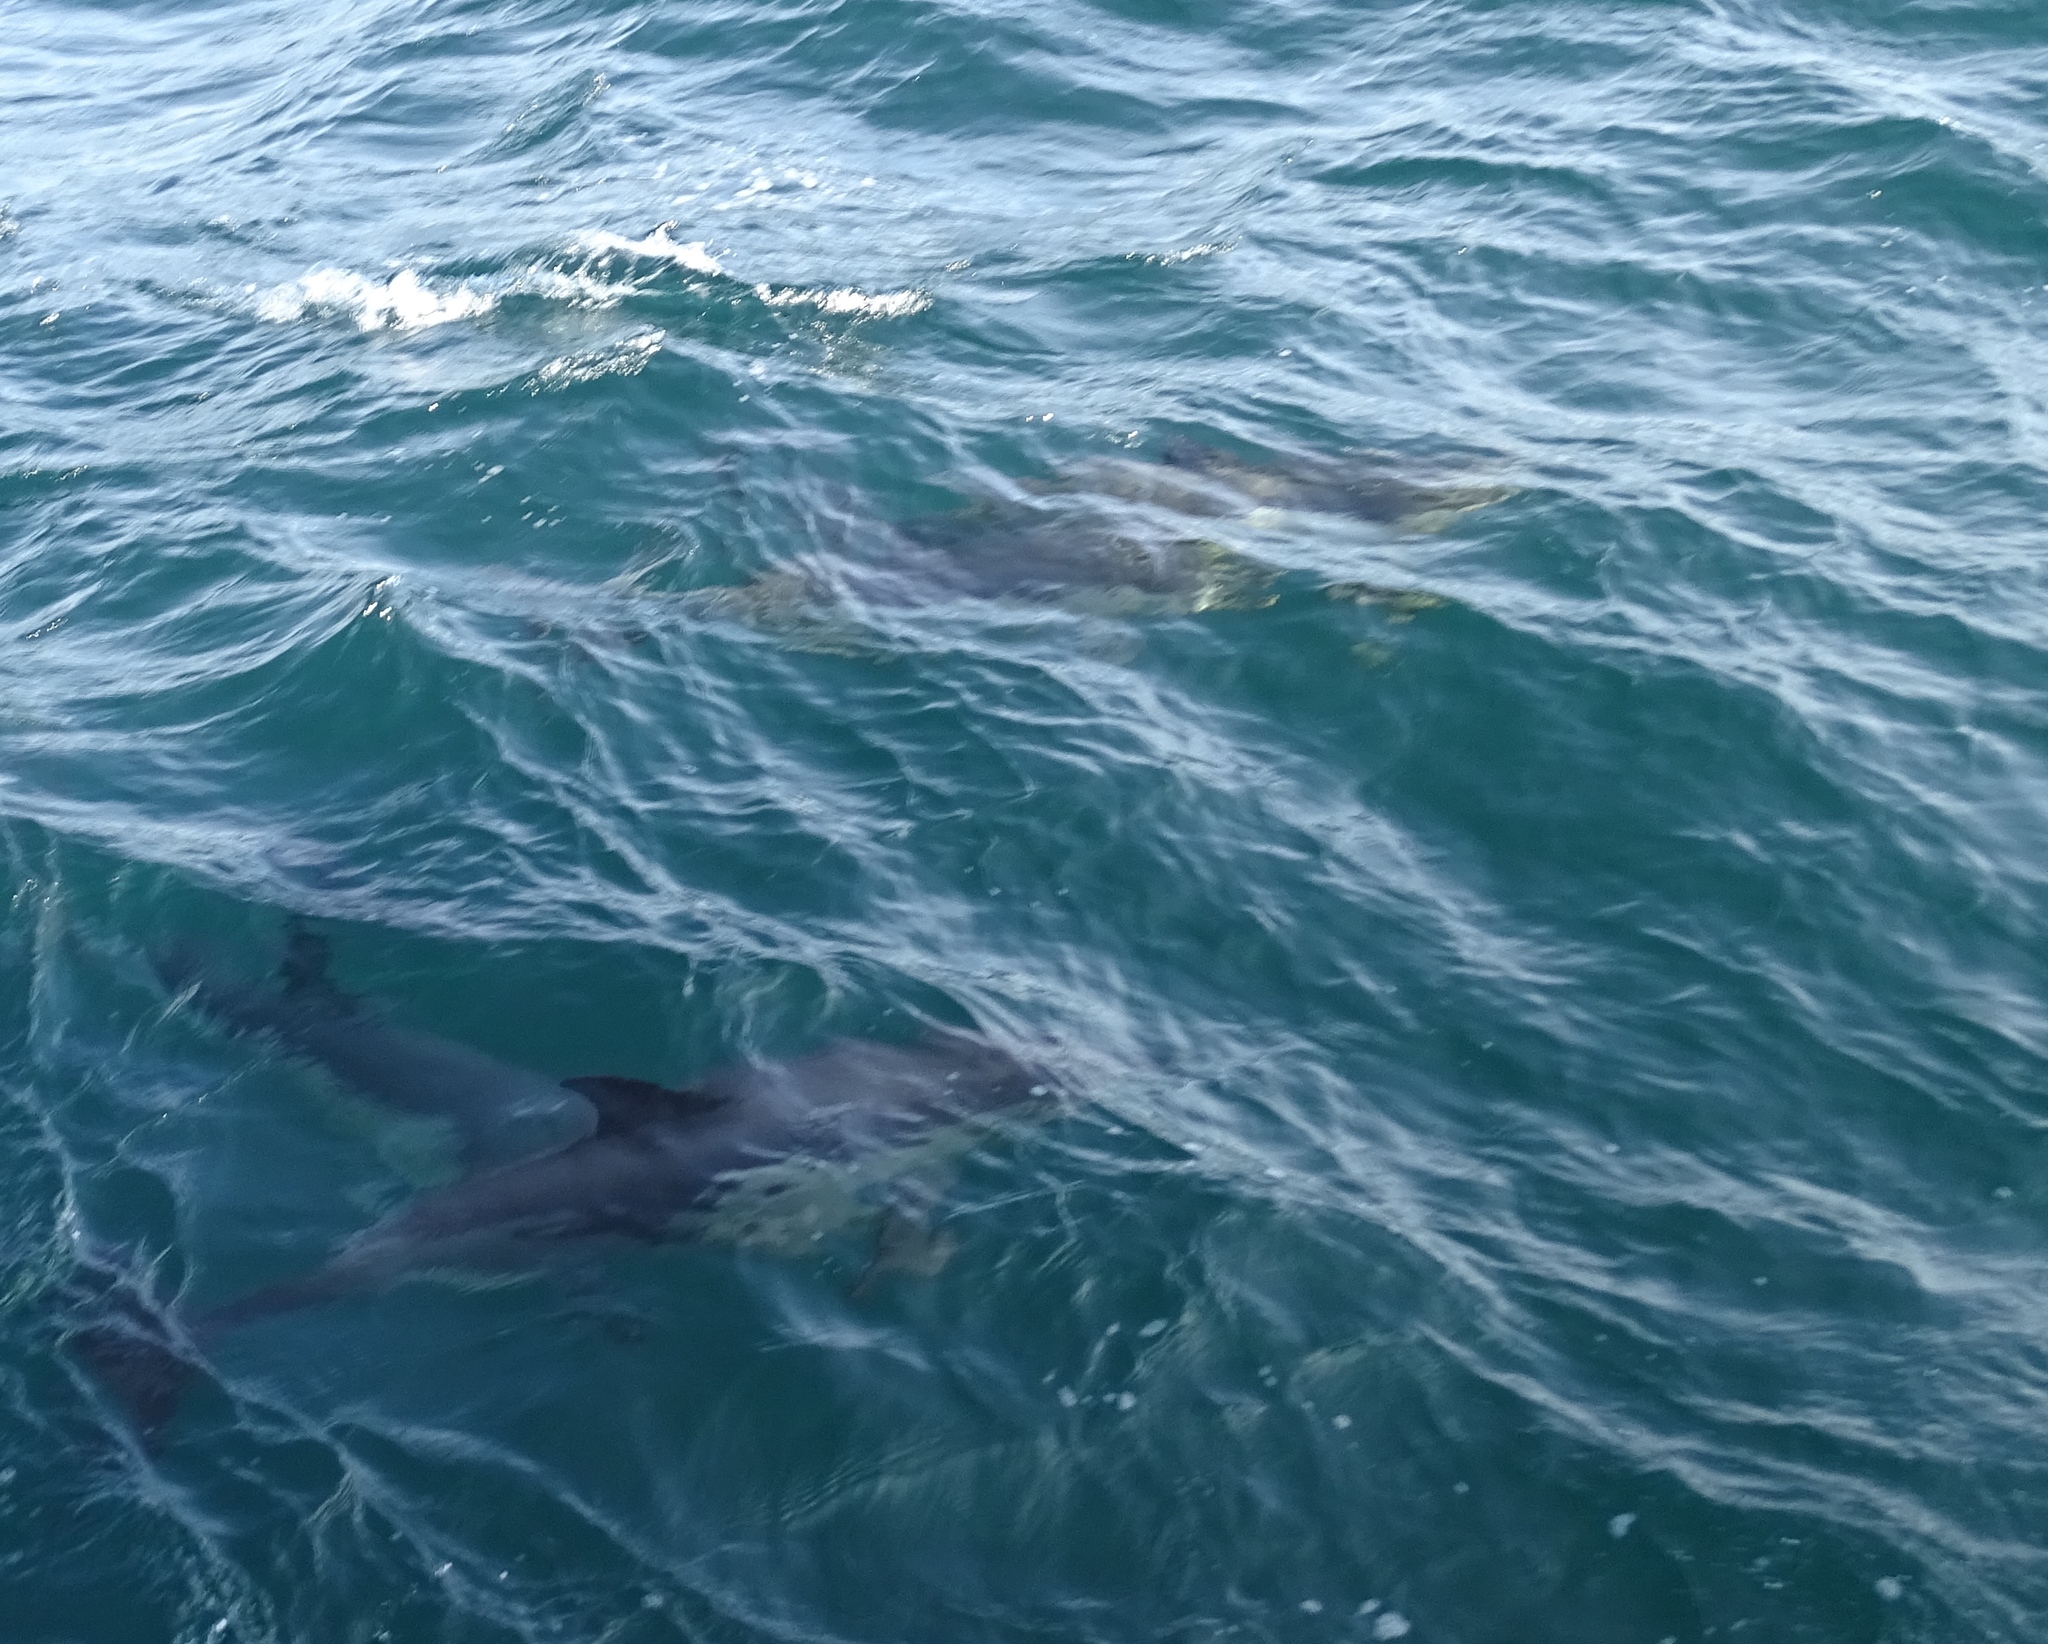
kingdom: Animalia
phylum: Chordata
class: Mammalia
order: Cetacea
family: Delphinidae
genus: Delphinus
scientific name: Delphinus delphis
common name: Common dolphin
